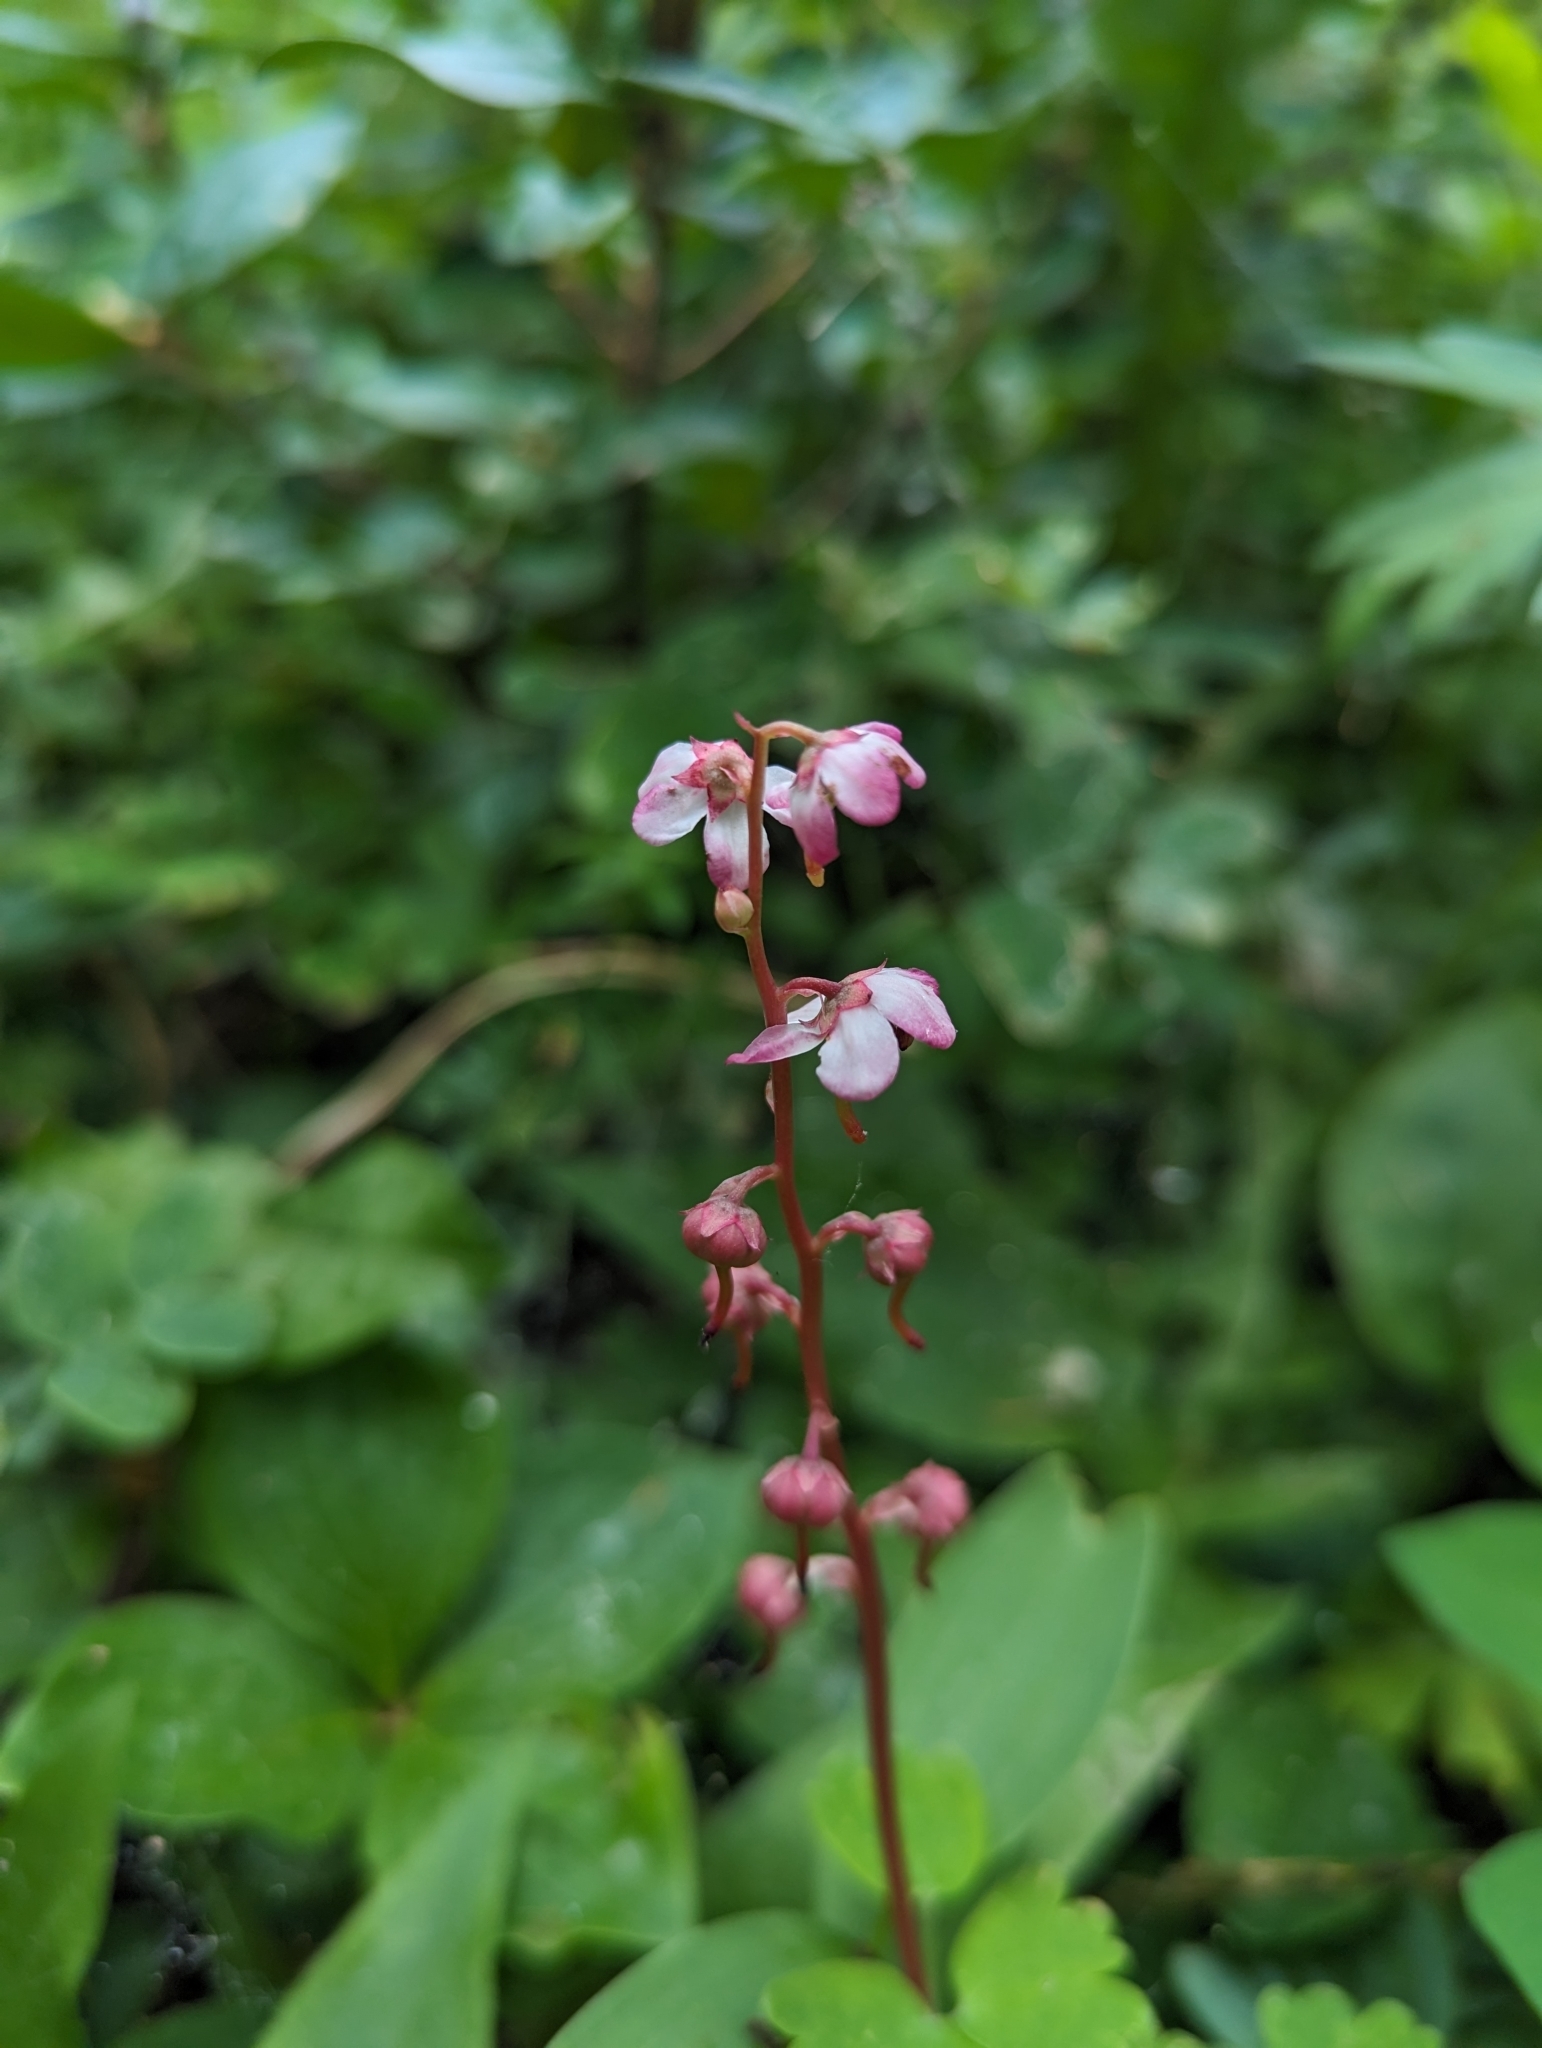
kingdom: Plantae
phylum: Tracheophyta
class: Magnoliopsida
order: Ericales
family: Ericaceae
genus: Pyrola
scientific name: Pyrola asarifolia
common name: Bog wintergreen
